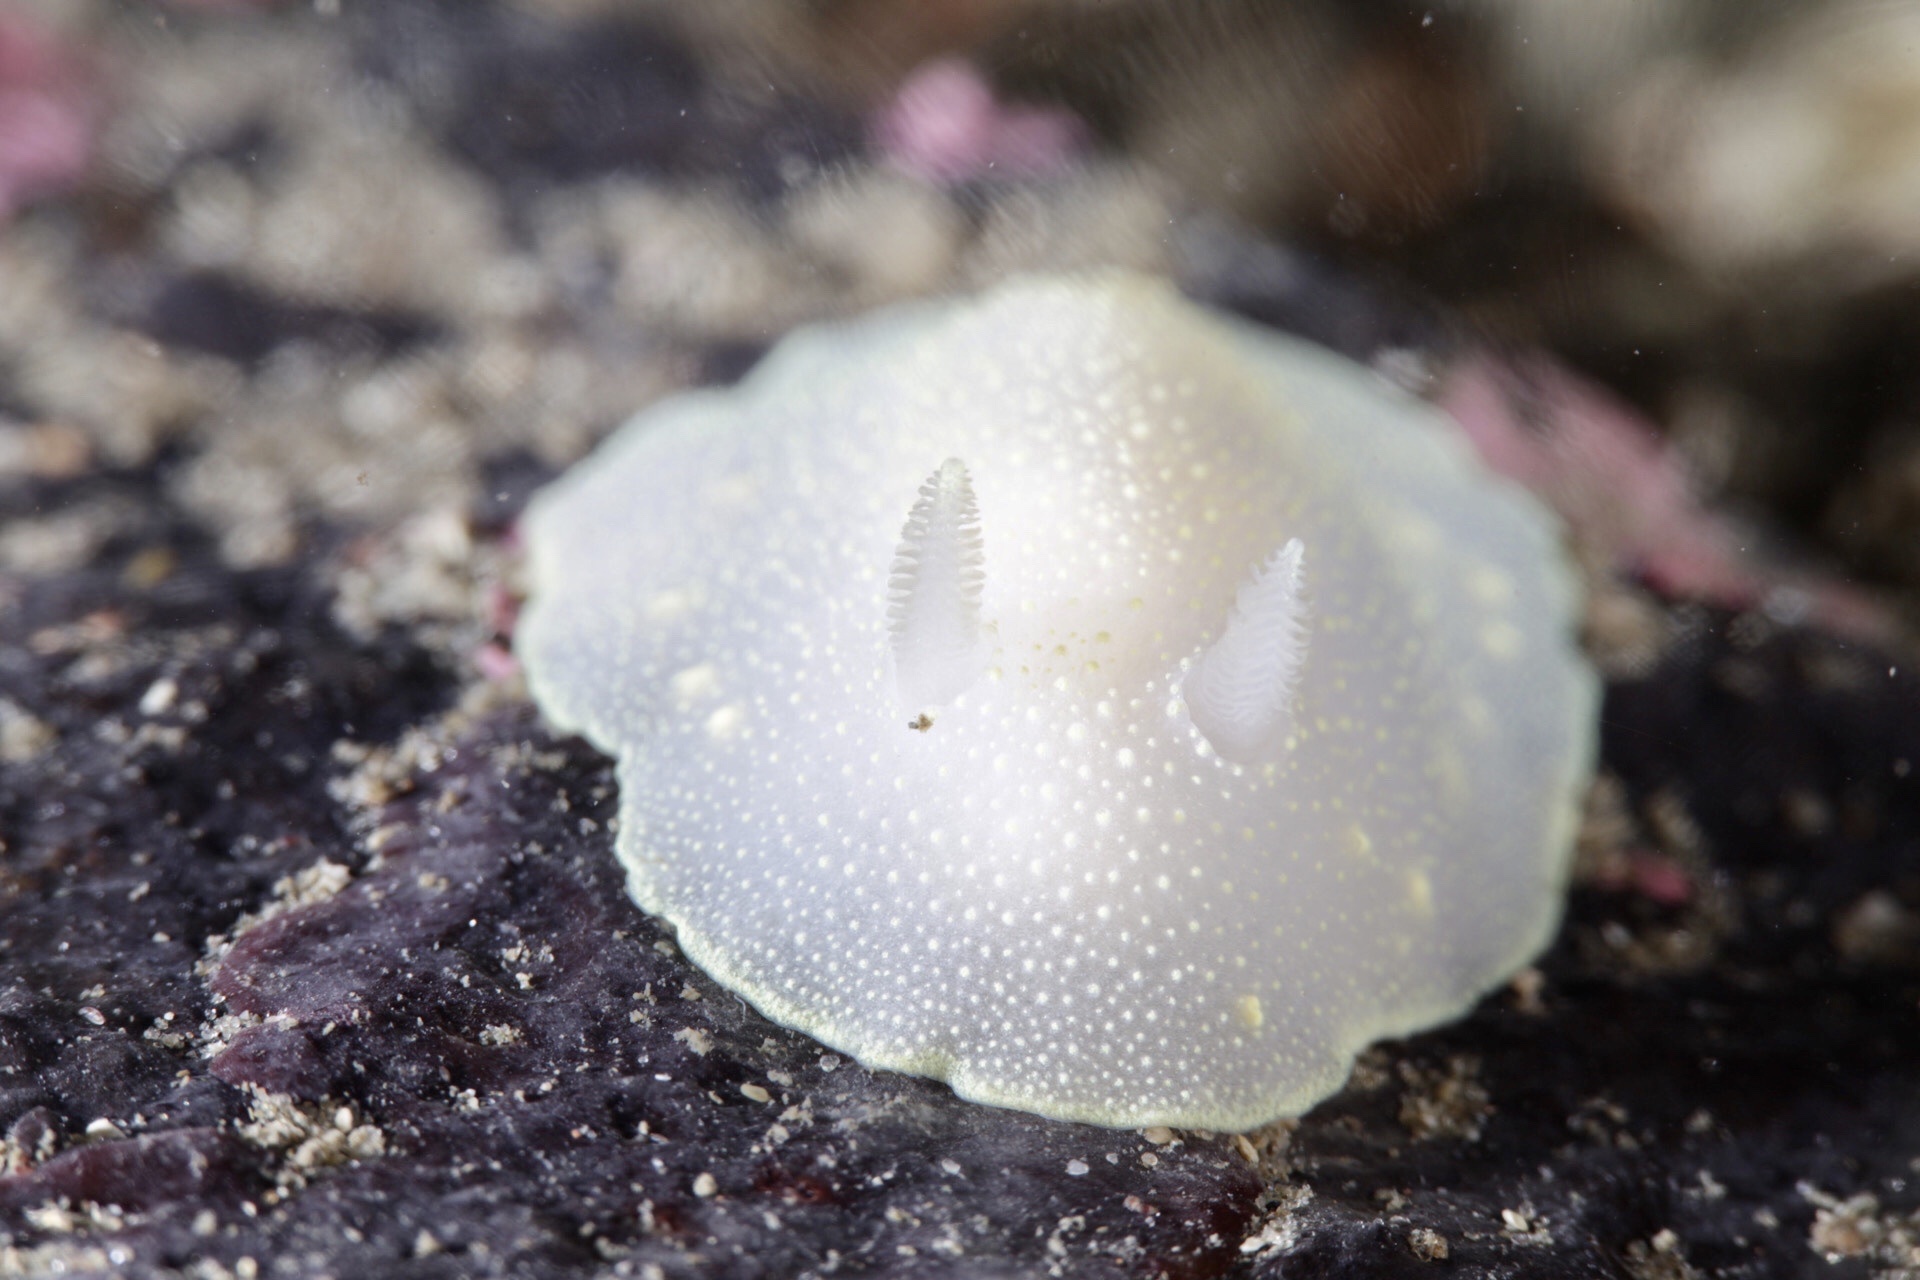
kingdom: Animalia
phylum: Mollusca
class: Gastropoda
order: Nudibranchia
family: Cadlinidae
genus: Cadlina
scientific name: Cadlina laevis
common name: White atlantic cadlina
